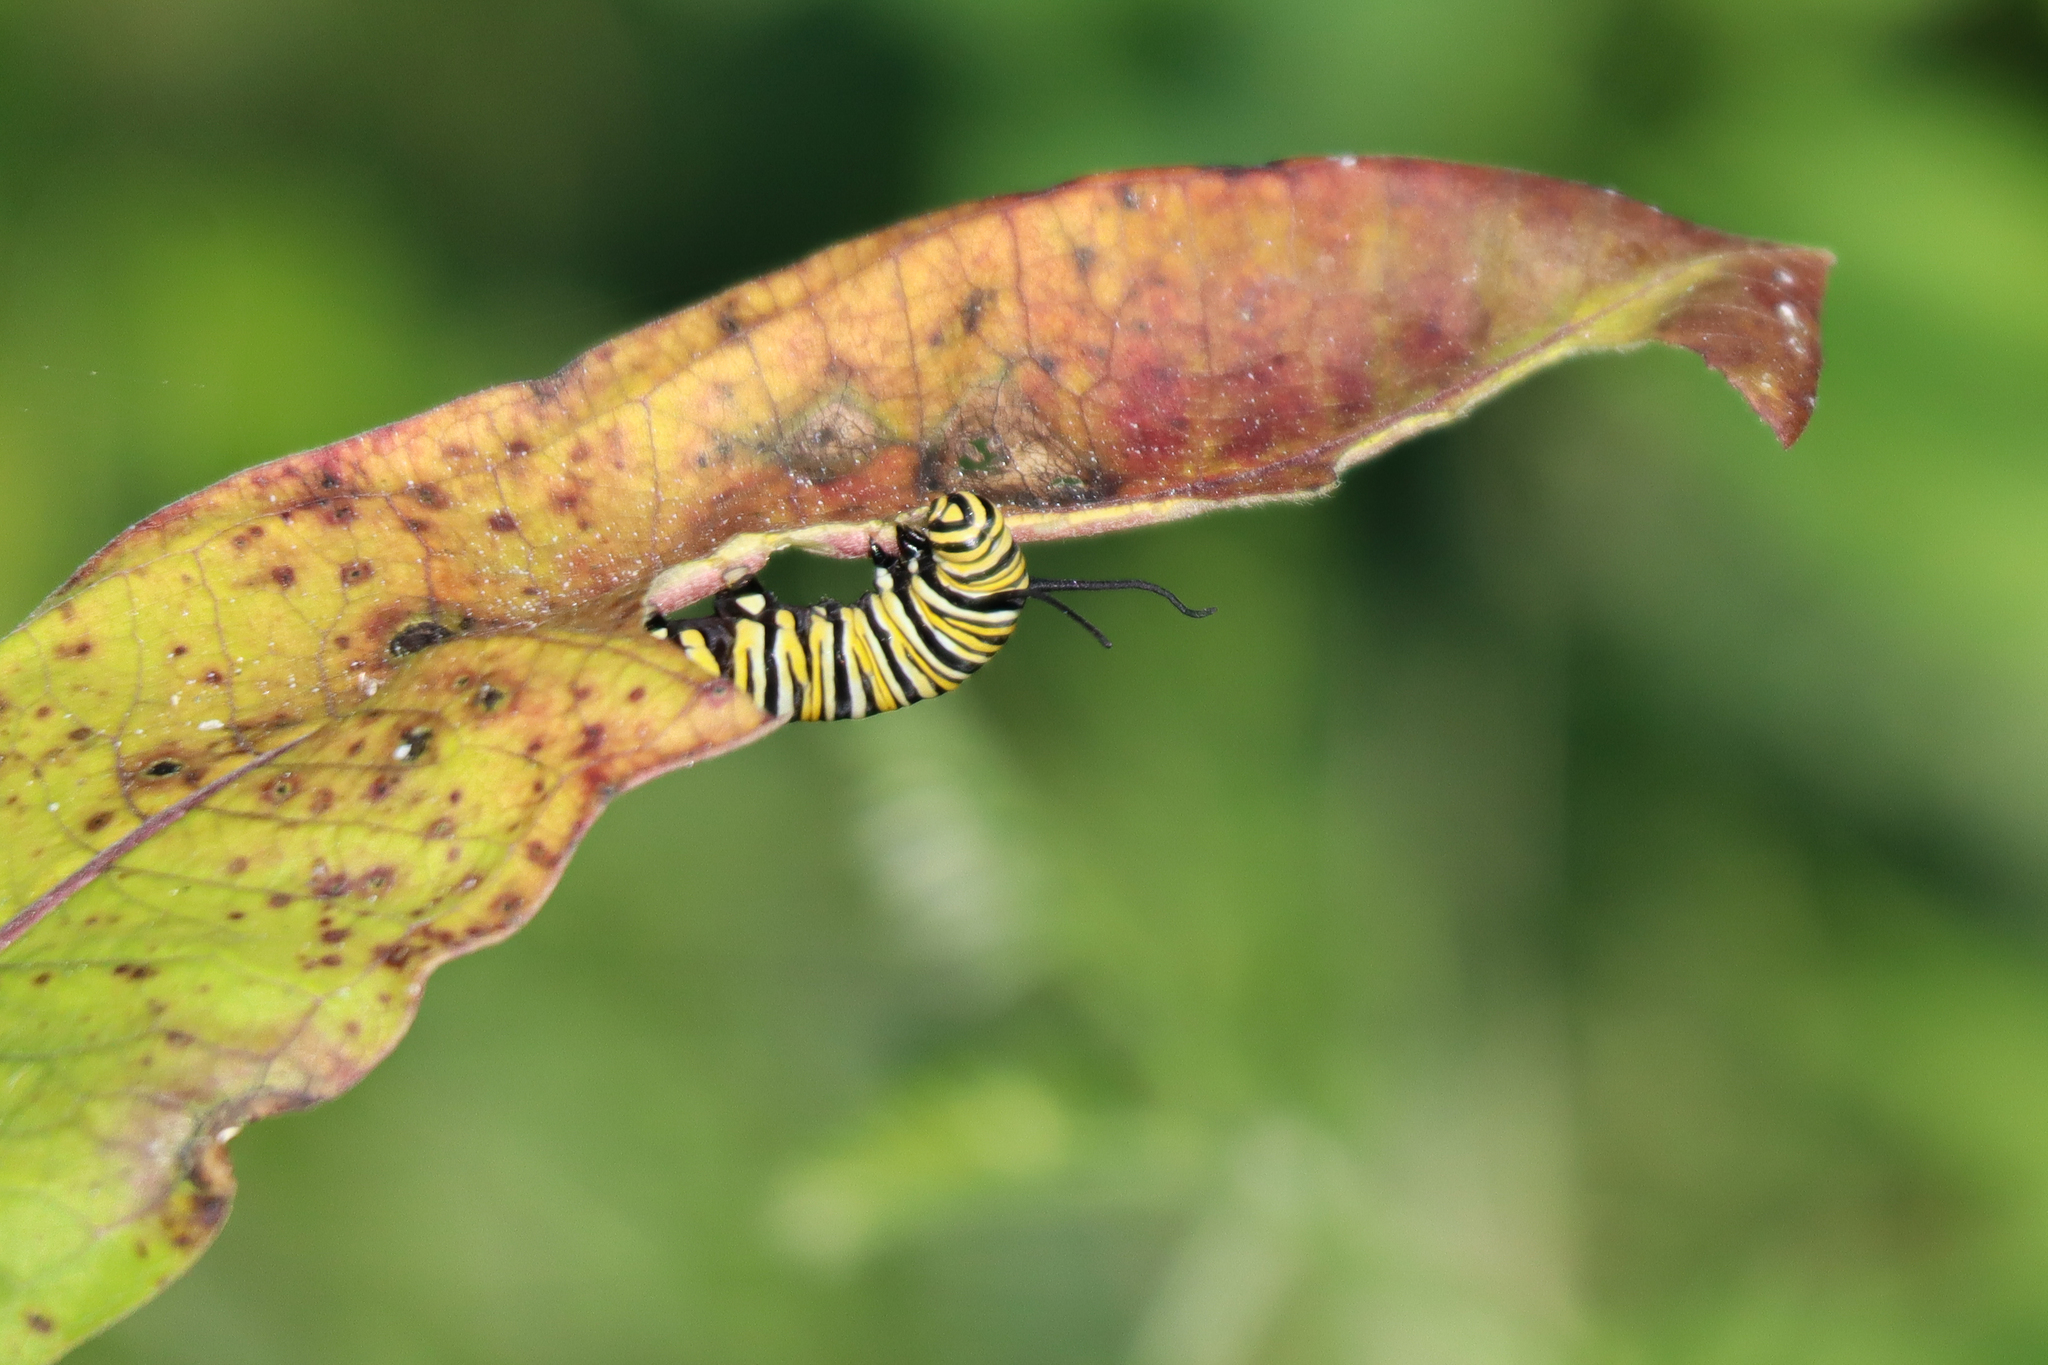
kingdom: Animalia
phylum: Arthropoda
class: Insecta
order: Lepidoptera
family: Nymphalidae
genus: Danaus
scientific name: Danaus plexippus
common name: Monarch
